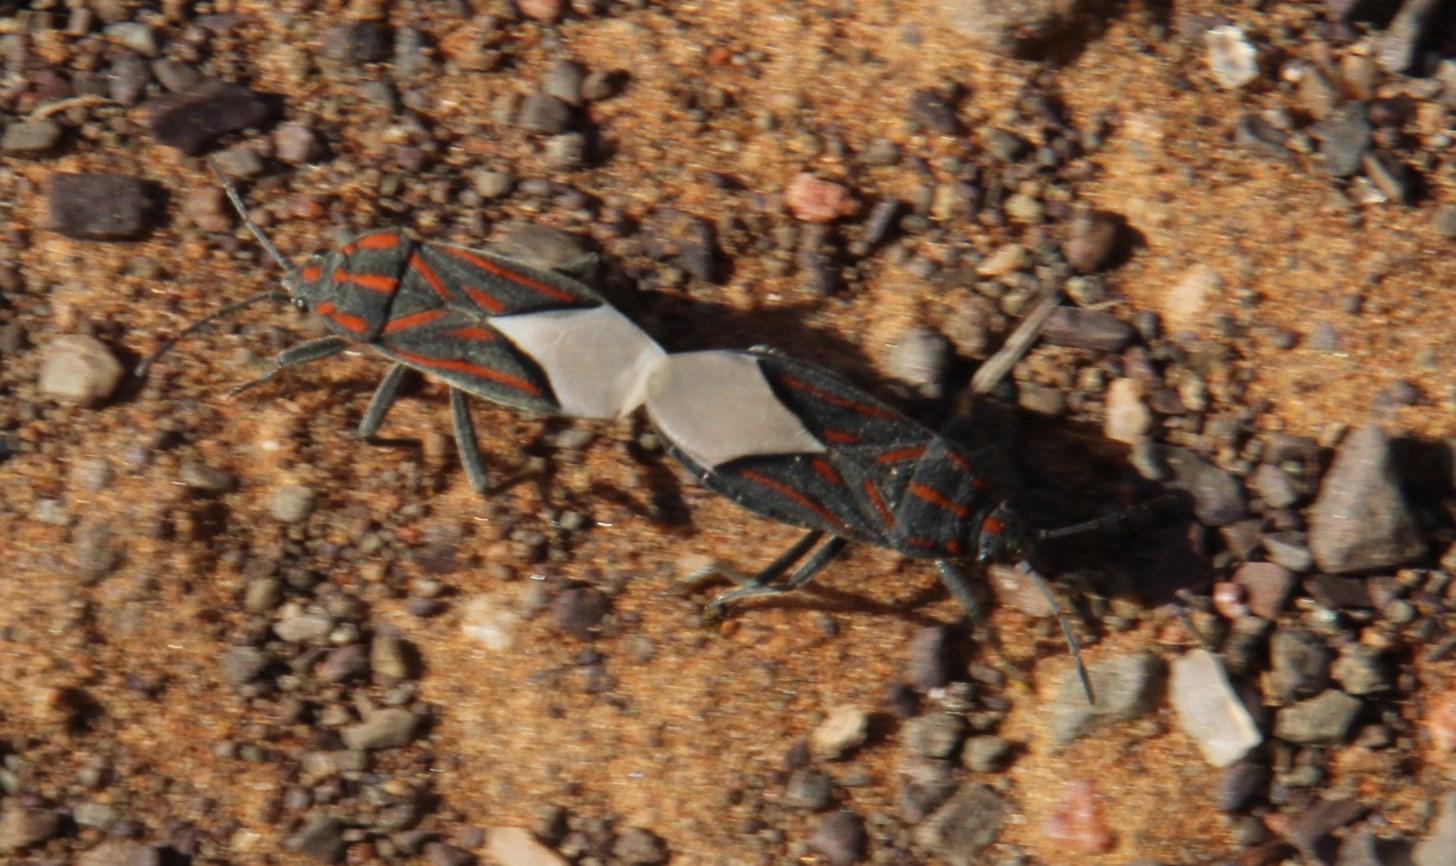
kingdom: Animalia
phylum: Arthropoda
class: Insecta
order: Hemiptera
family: Lygaeidae
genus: Spilostethus
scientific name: Spilostethus trilineatus
